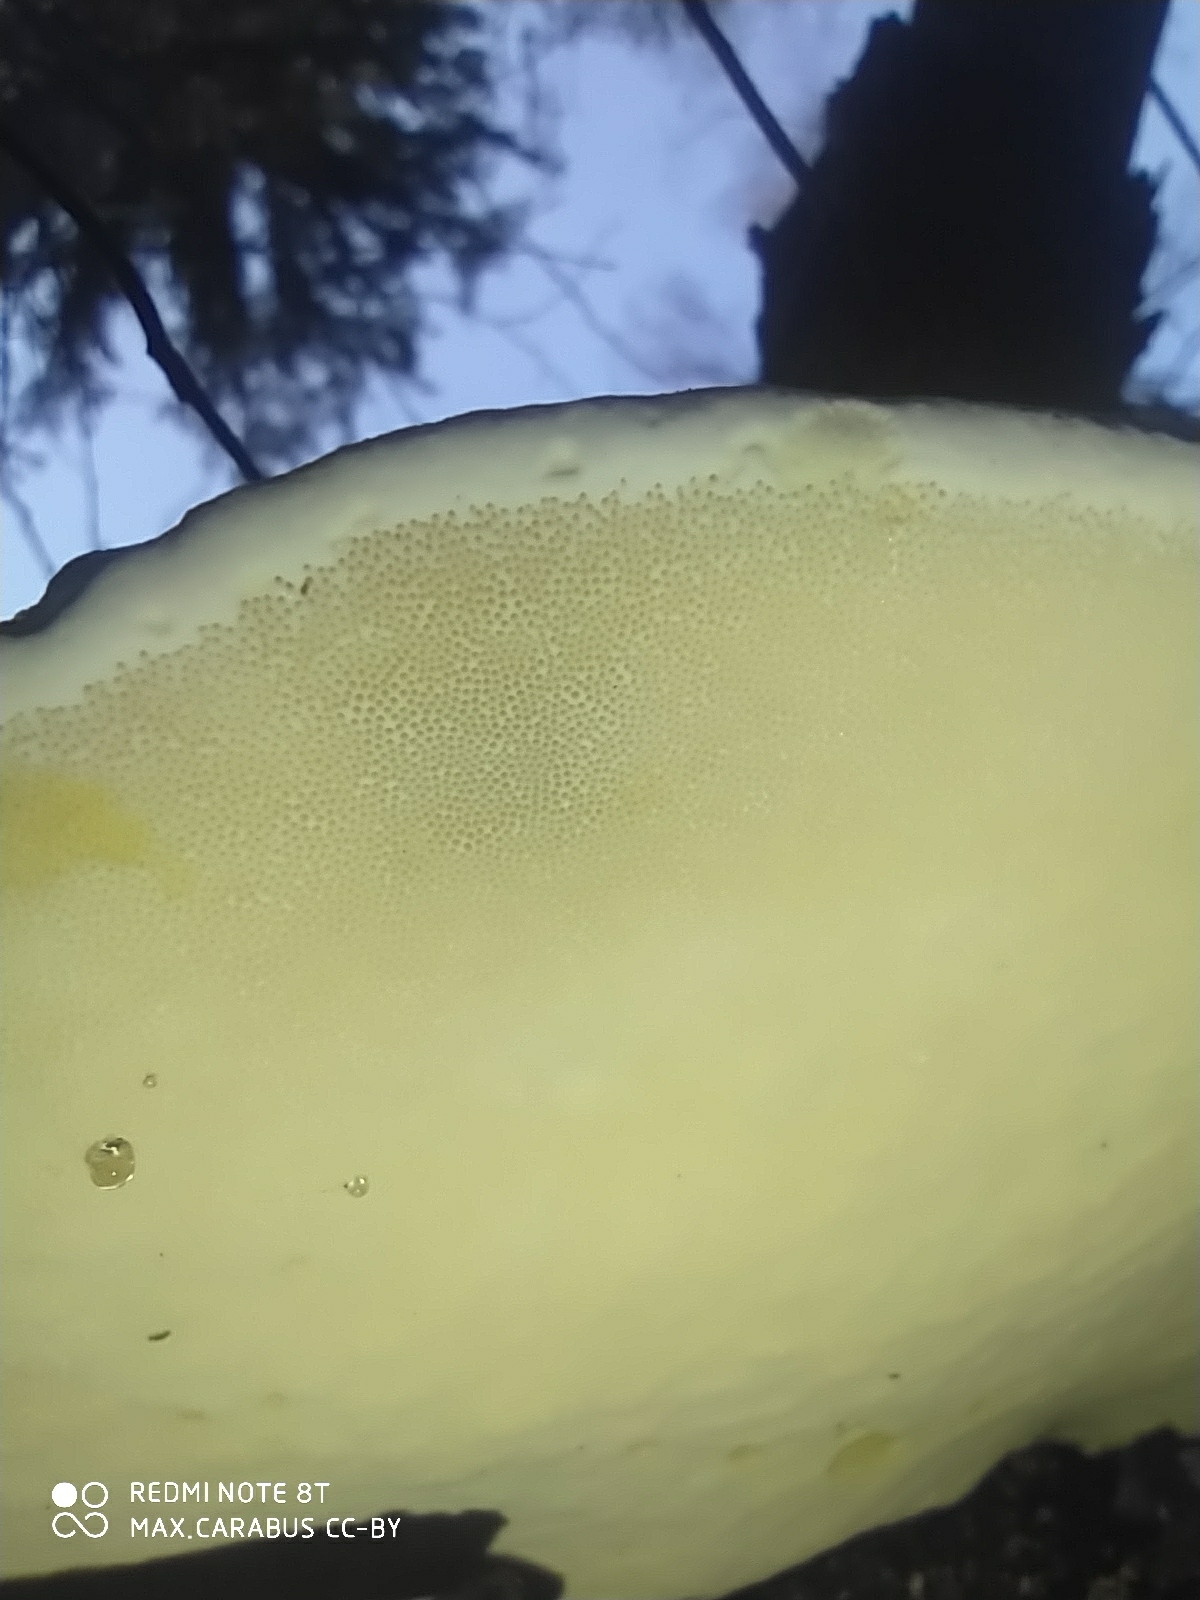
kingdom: Fungi
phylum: Basidiomycota
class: Agaricomycetes
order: Polyporales
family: Fomitopsidaceae
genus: Fomitopsis
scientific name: Fomitopsis pinicola
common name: Red-belted bracket
